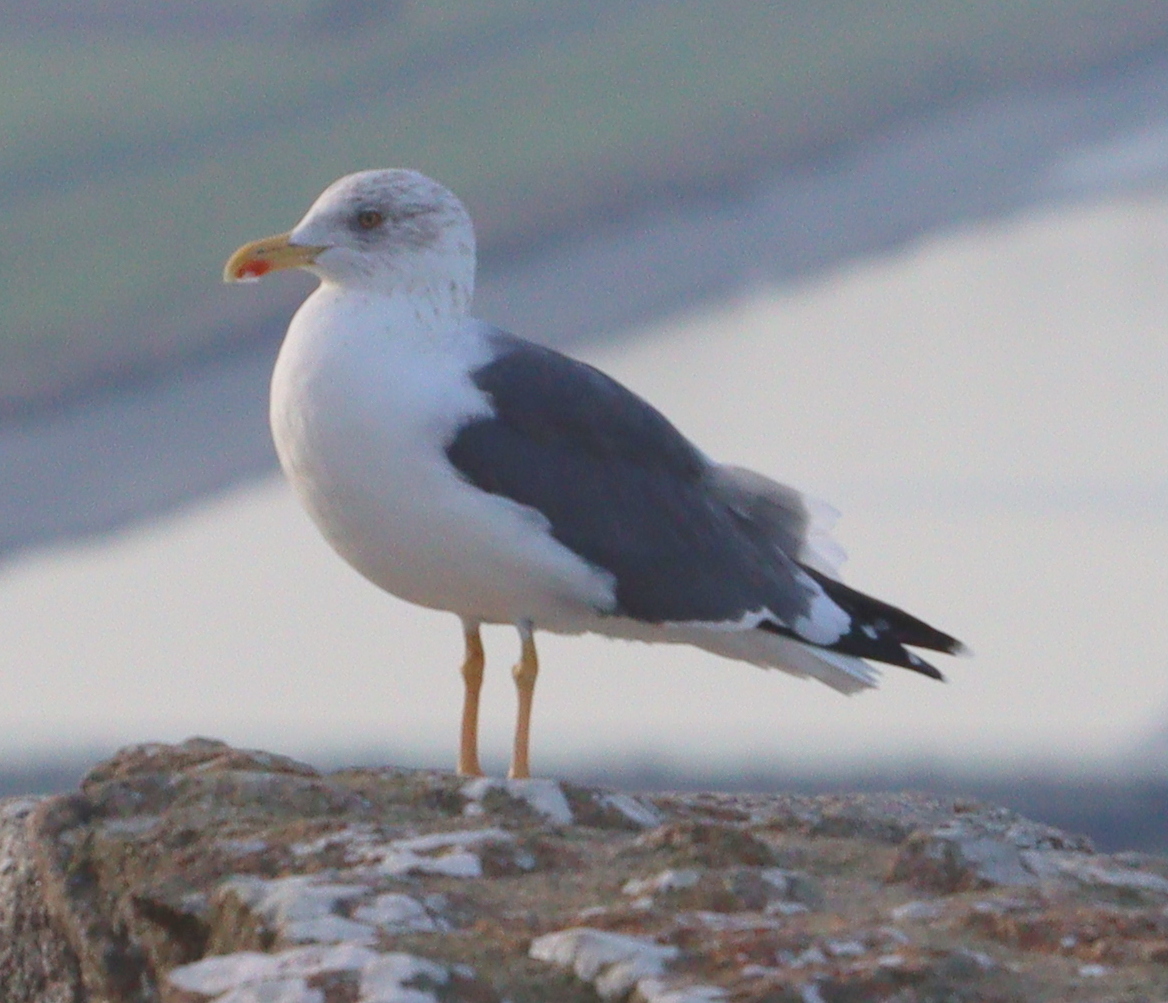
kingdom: Animalia
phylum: Chordata
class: Aves
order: Charadriiformes
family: Laridae
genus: Larus
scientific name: Larus fuscus
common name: Lesser black-backed gull
